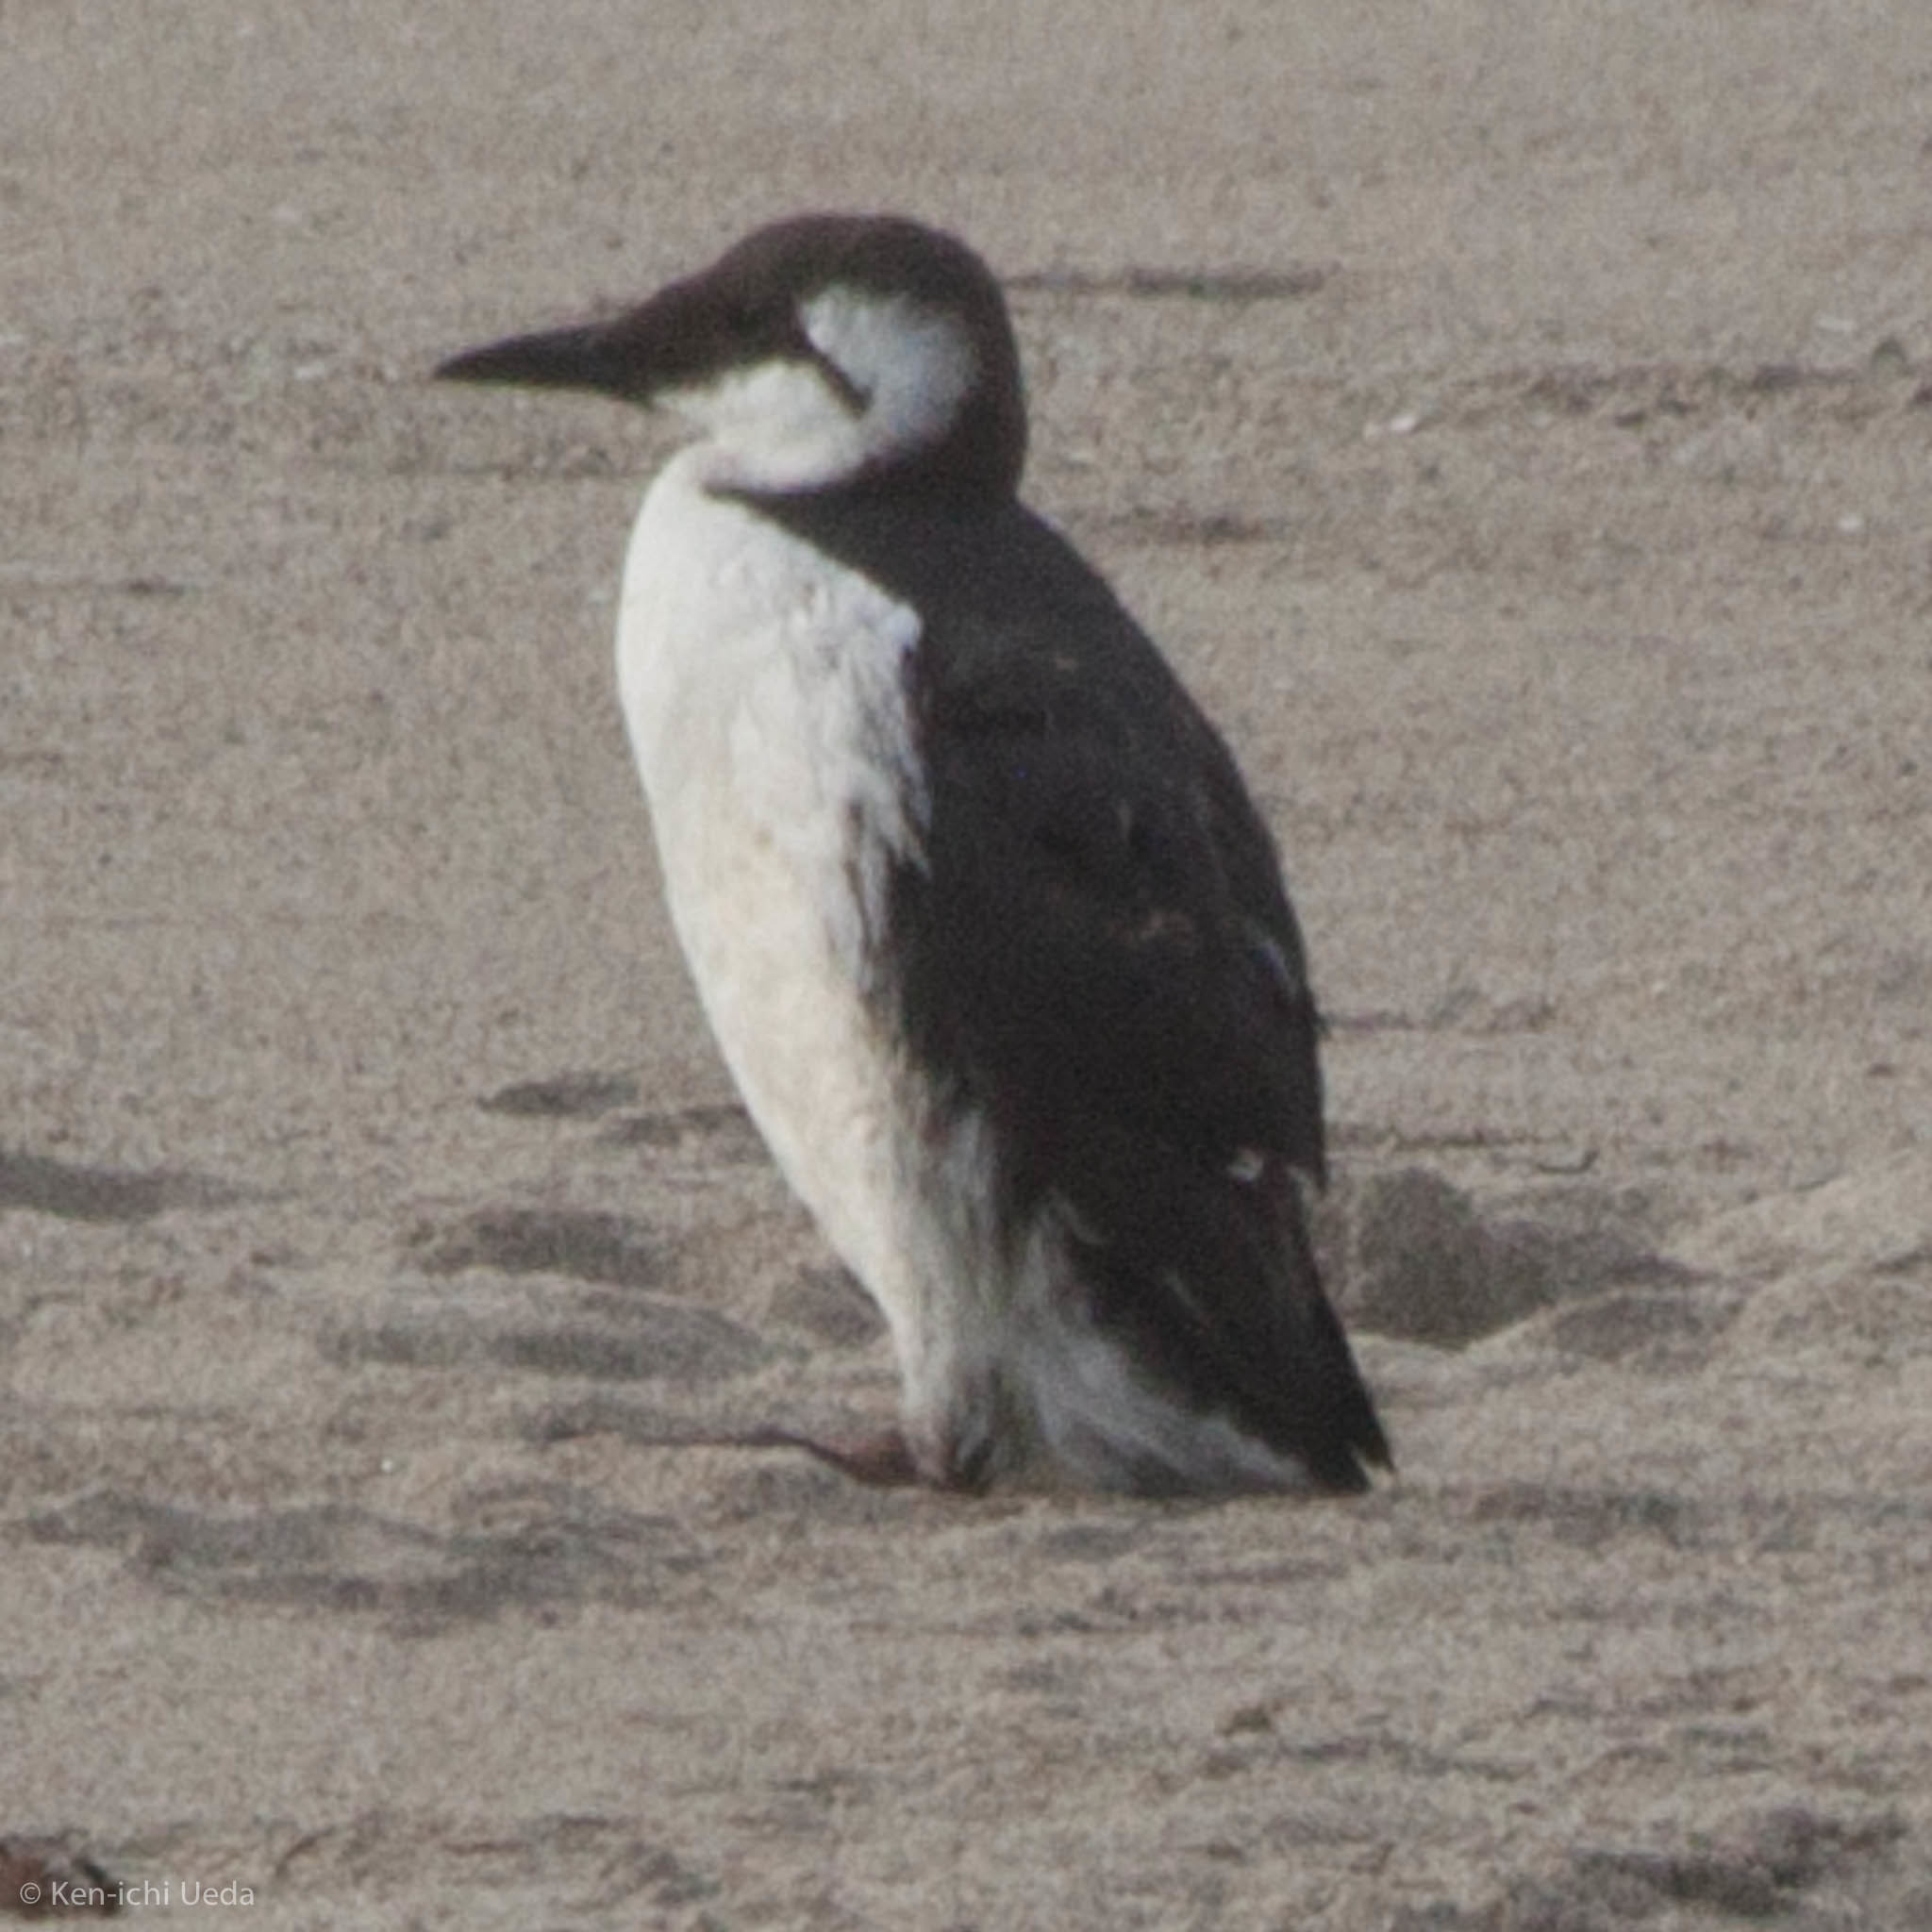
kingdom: Animalia
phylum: Chordata
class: Aves
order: Charadriiformes
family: Alcidae
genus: Uria
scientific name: Uria aalge
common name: Common murre
